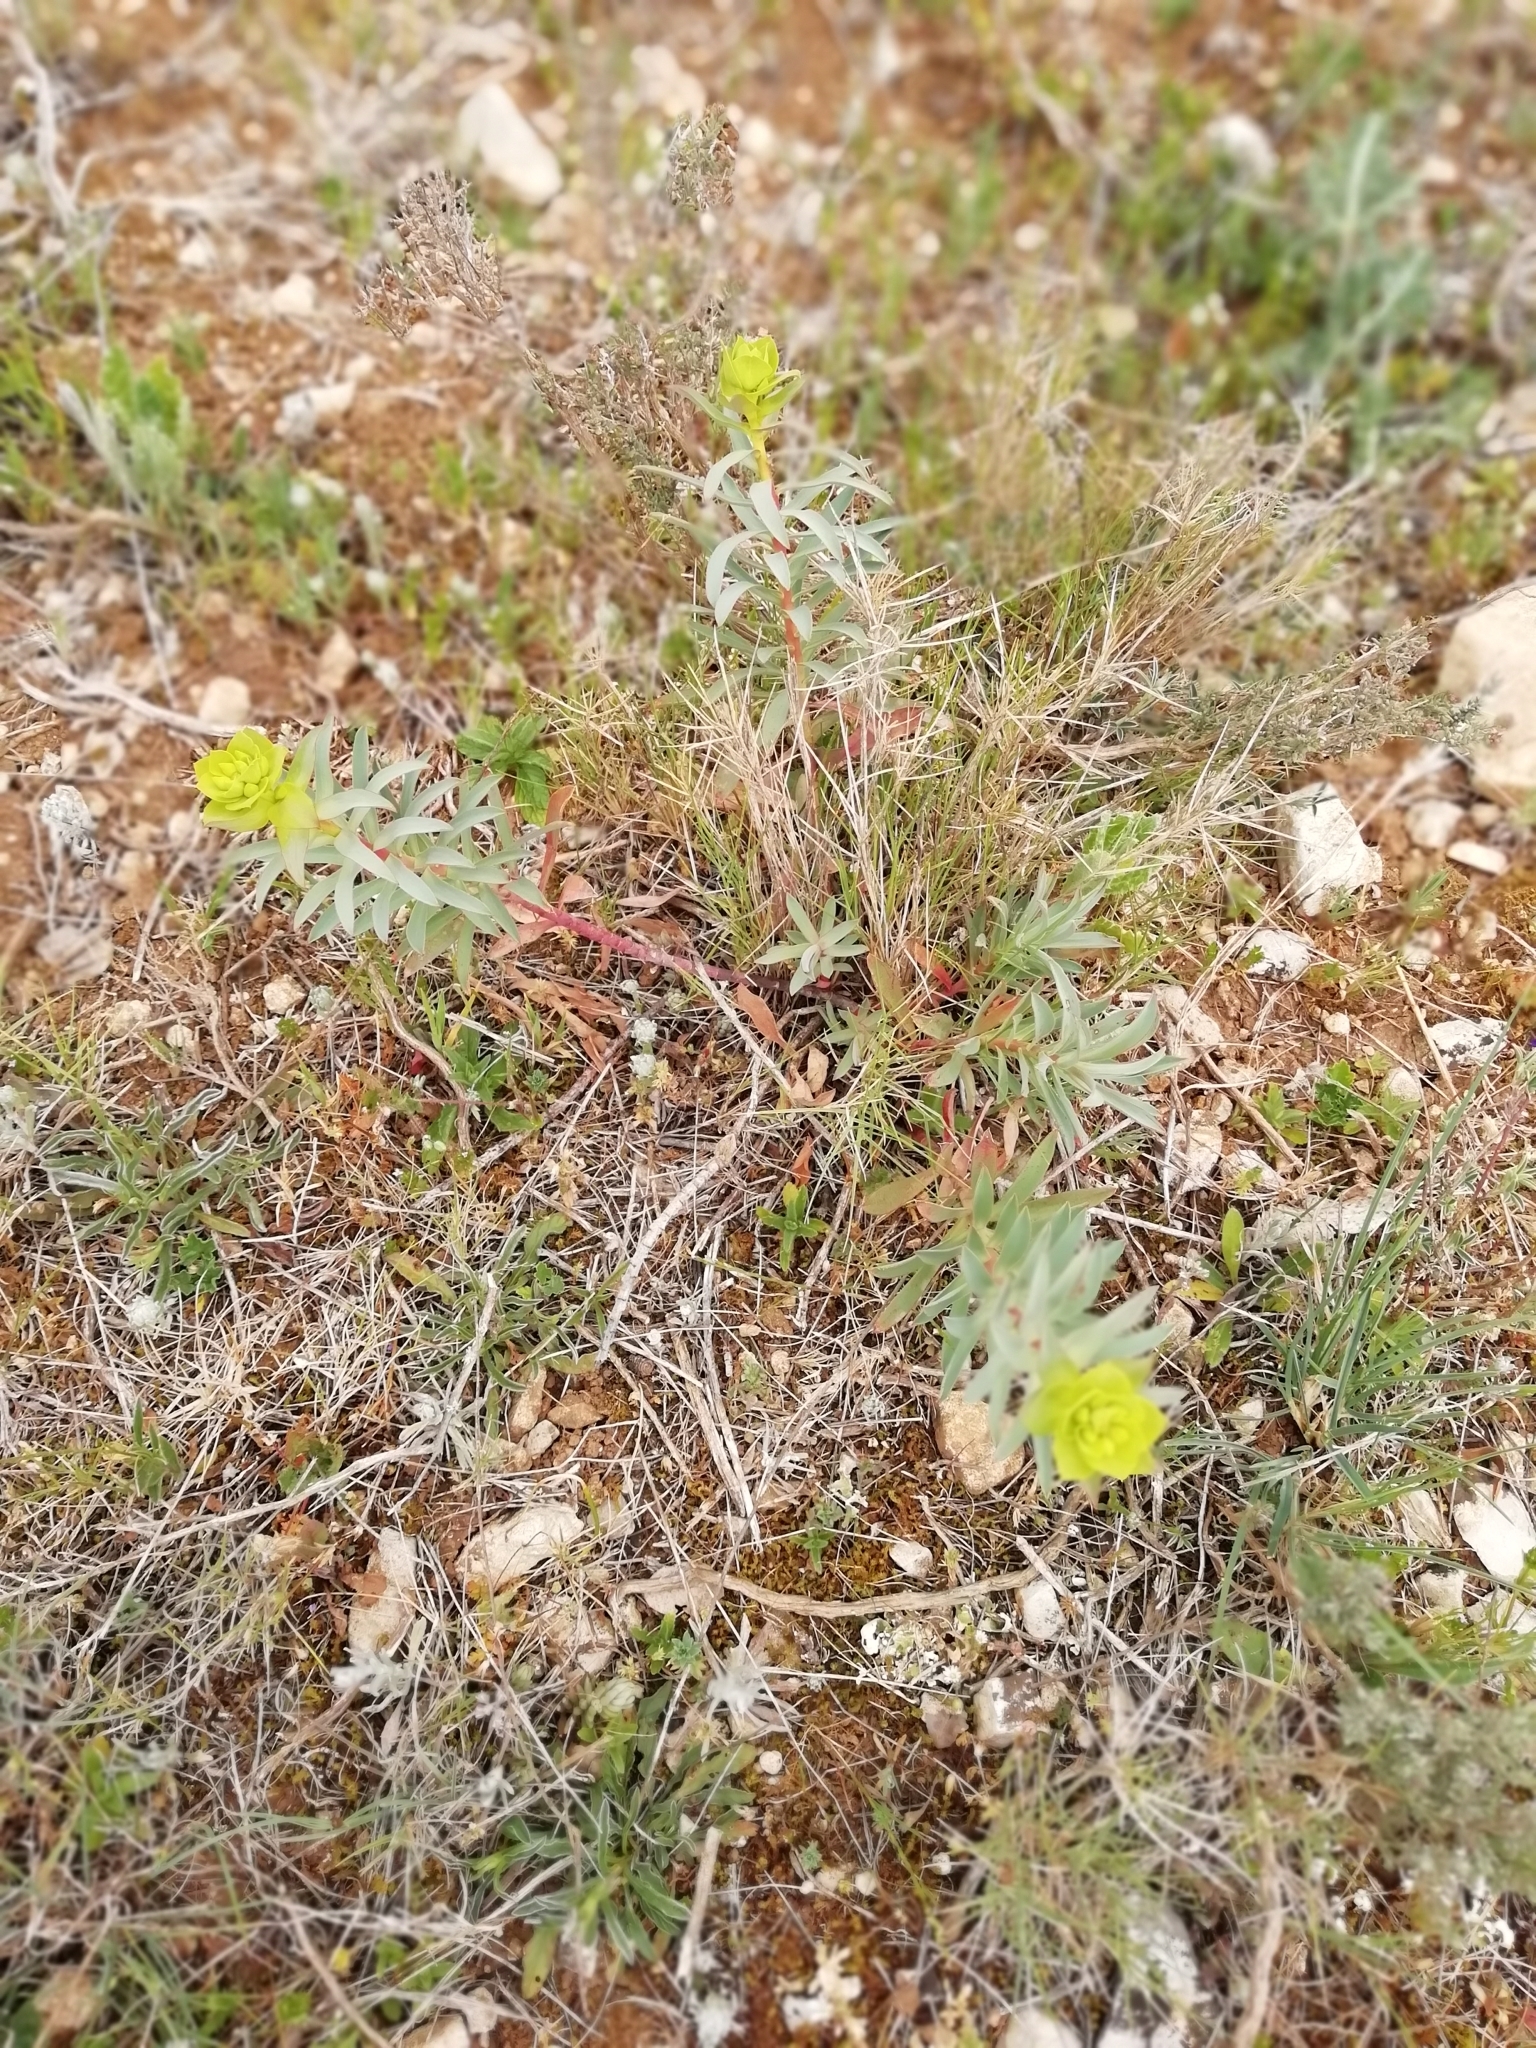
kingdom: Plantae
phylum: Tracheophyta
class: Magnoliopsida
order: Malpighiales
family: Euphorbiaceae
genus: Euphorbia
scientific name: Euphorbia nicaeensis
